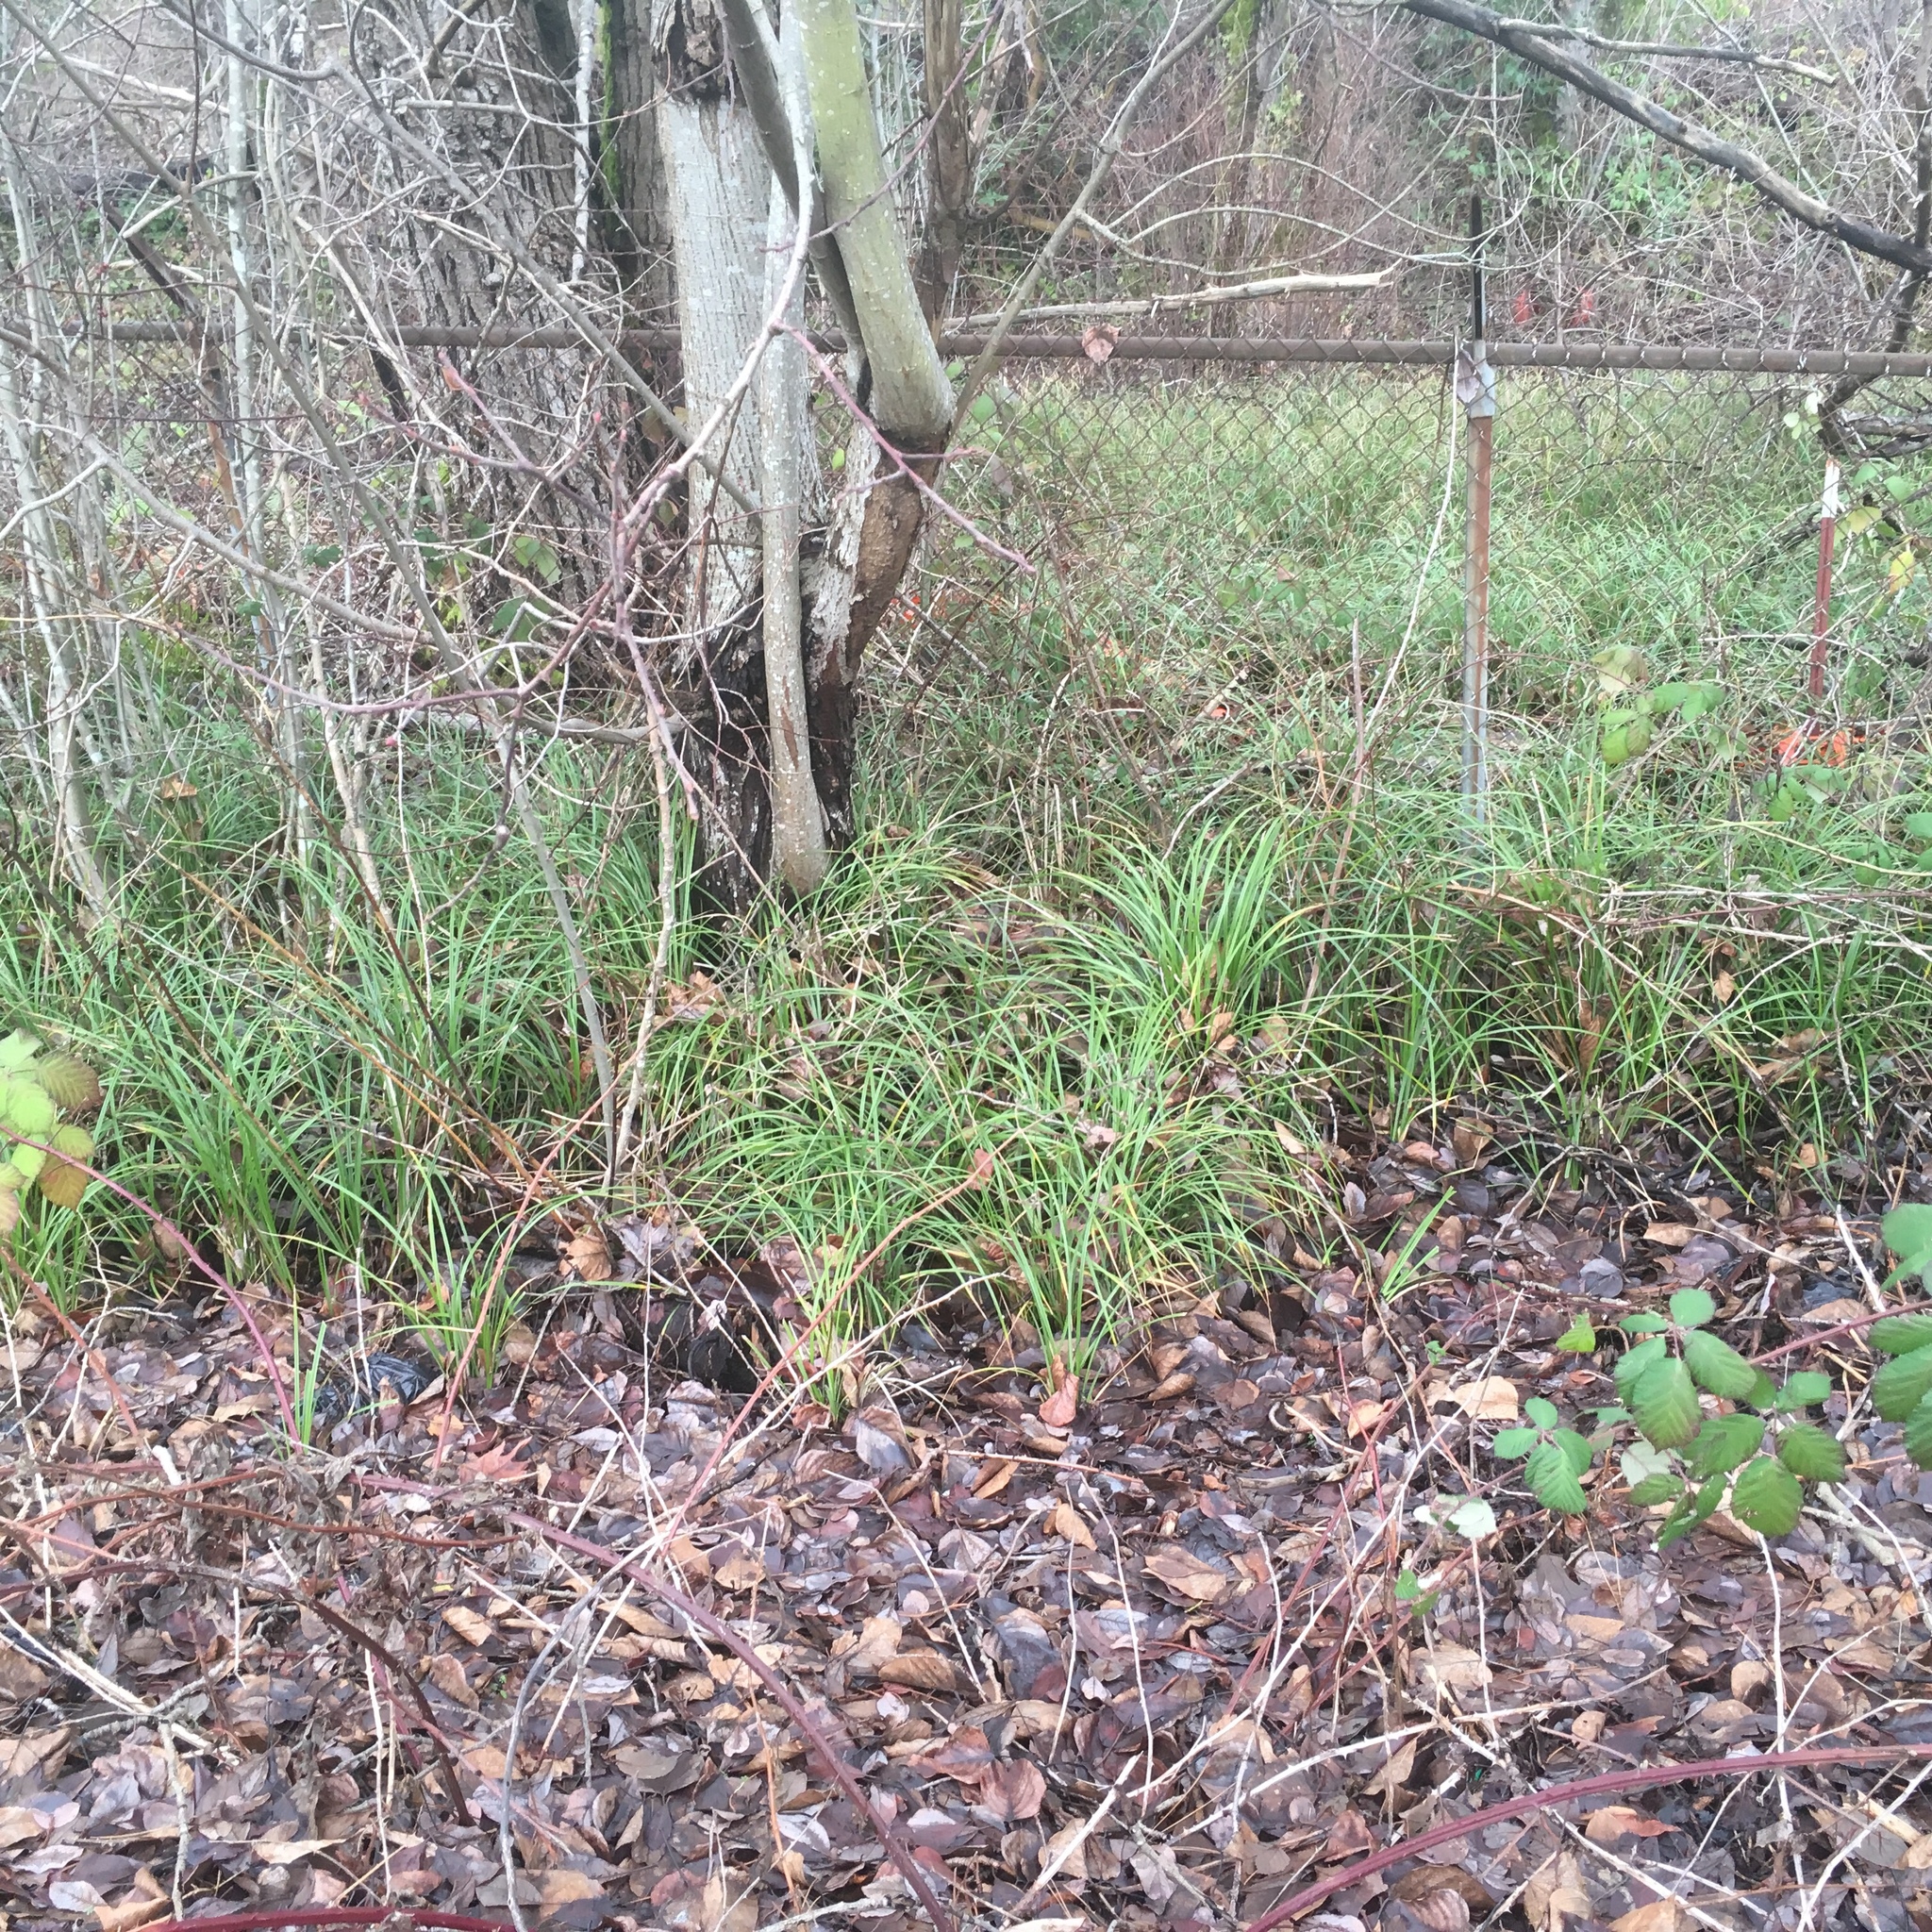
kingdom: Plantae
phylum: Tracheophyta
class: Liliopsida
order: Poales
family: Cyperaceae
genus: Carex
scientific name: Carex obnupta
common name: Slough sedge
